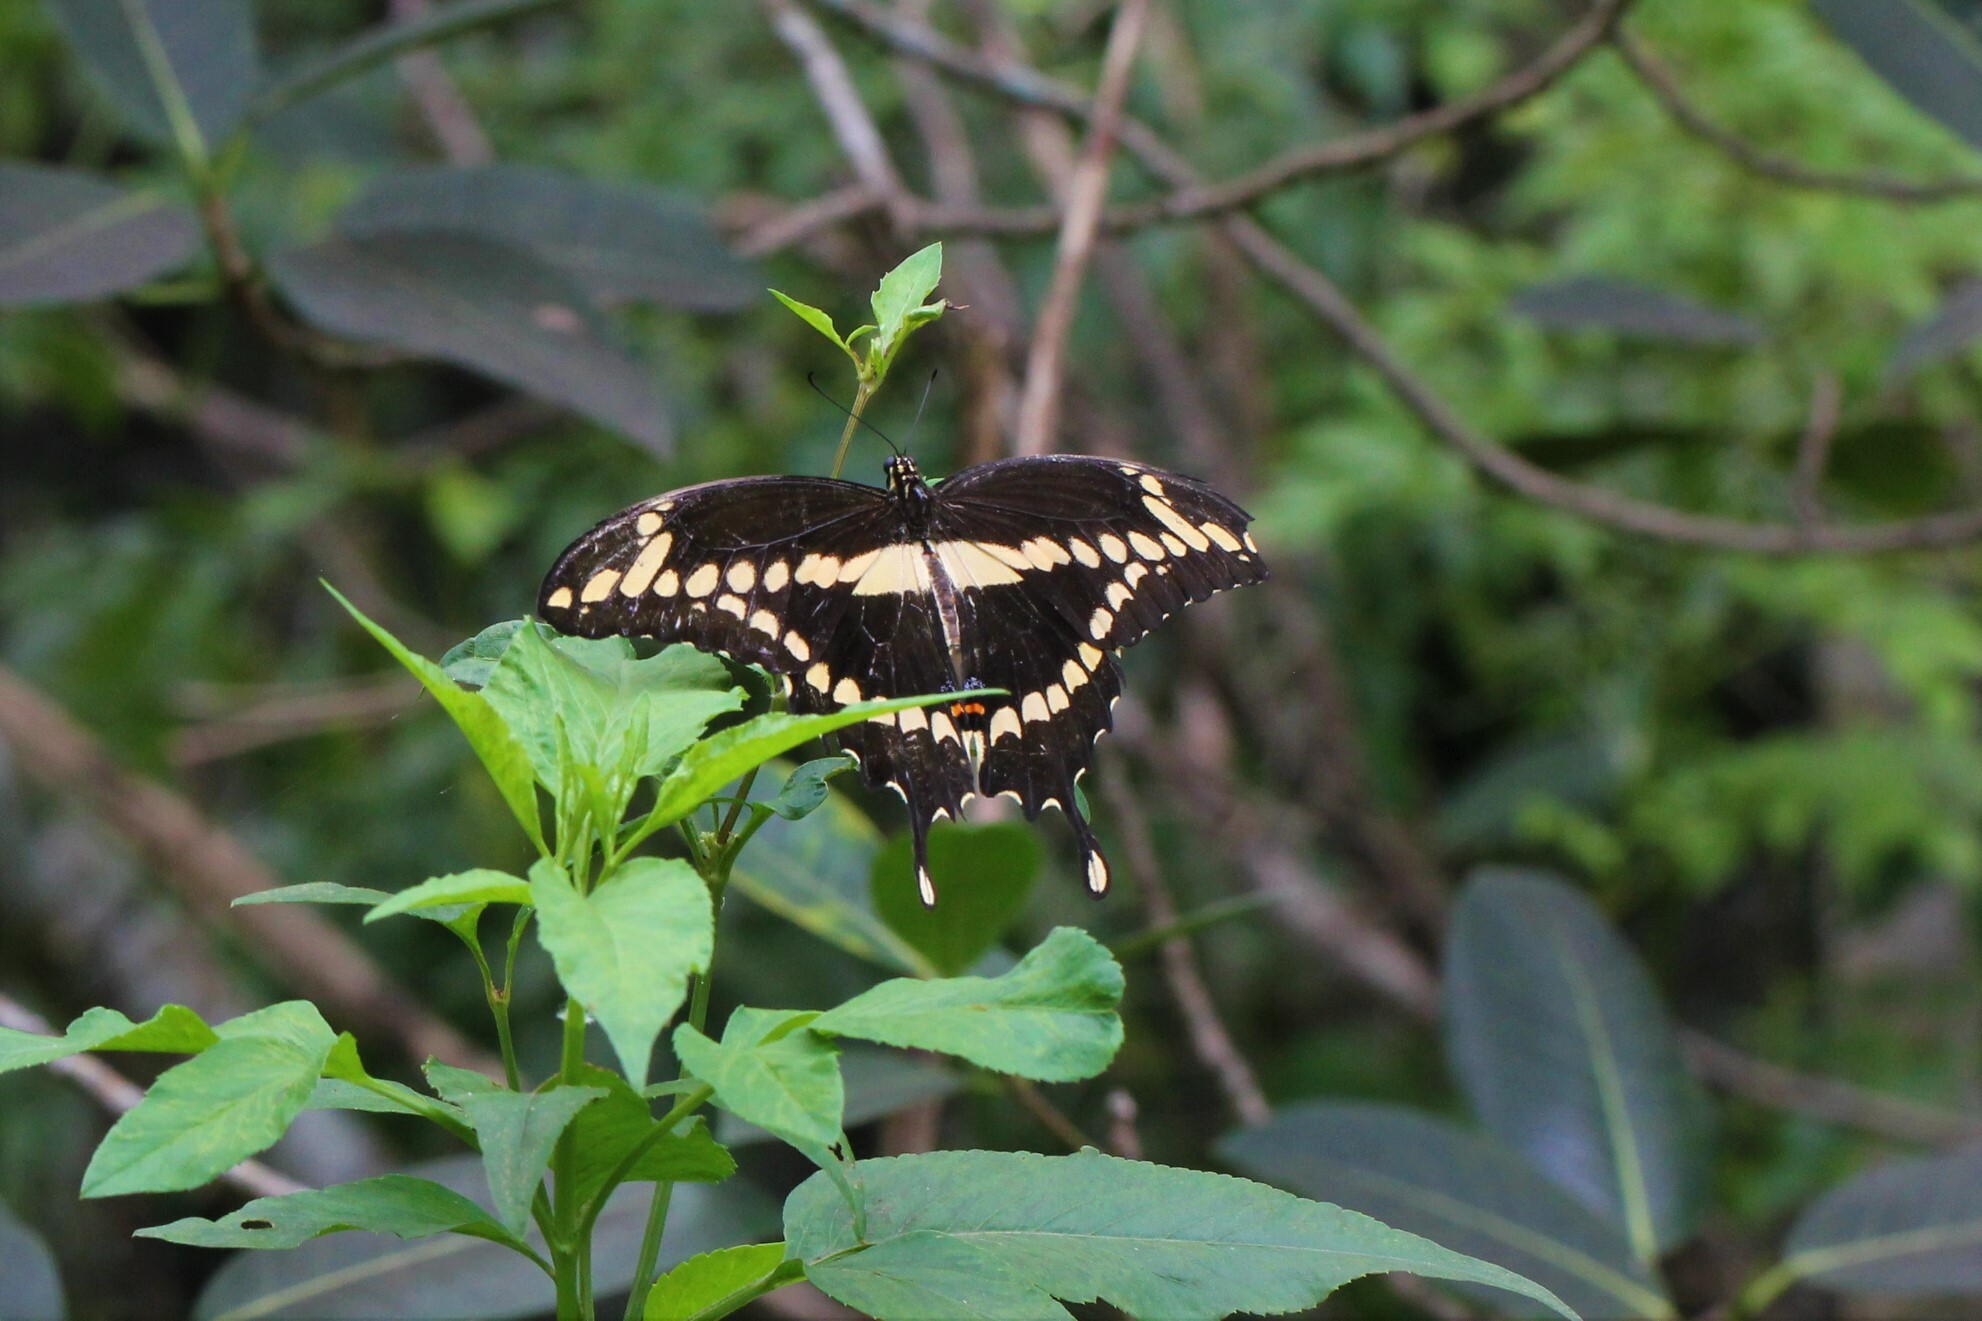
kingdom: Animalia
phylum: Arthropoda
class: Insecta
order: Lepidoptera
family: Papilionidae
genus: Papilio
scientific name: Papilio cresphontes
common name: Giant swallowtail
